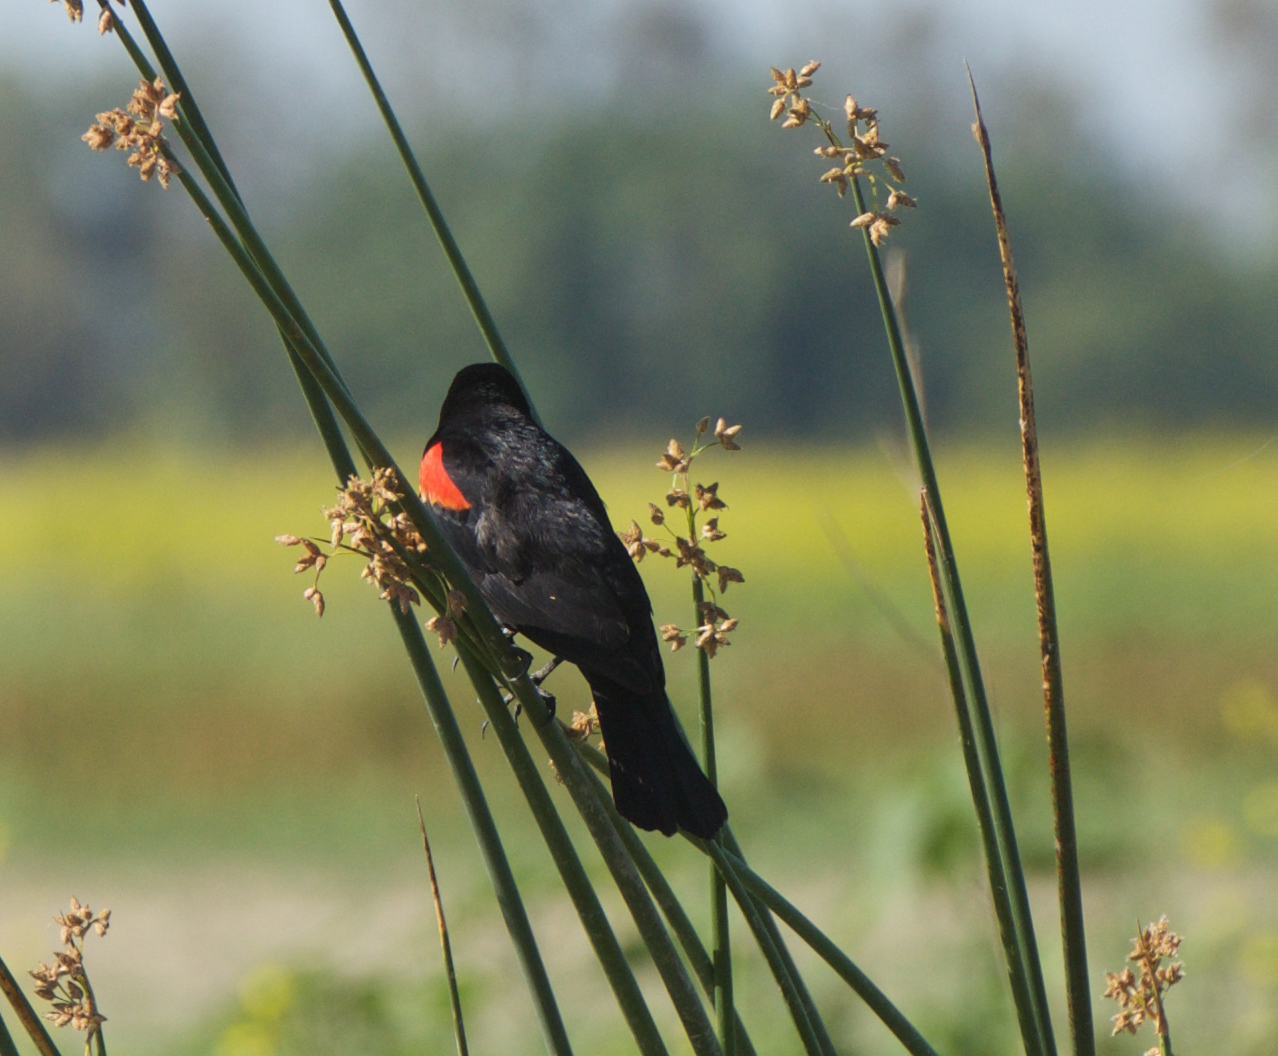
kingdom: Animalia
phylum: Chordata
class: Aves
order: Passeriformes
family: Icteridae
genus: Agelaius
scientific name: Agelaius phoeniceus
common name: Red-winged blackbird
